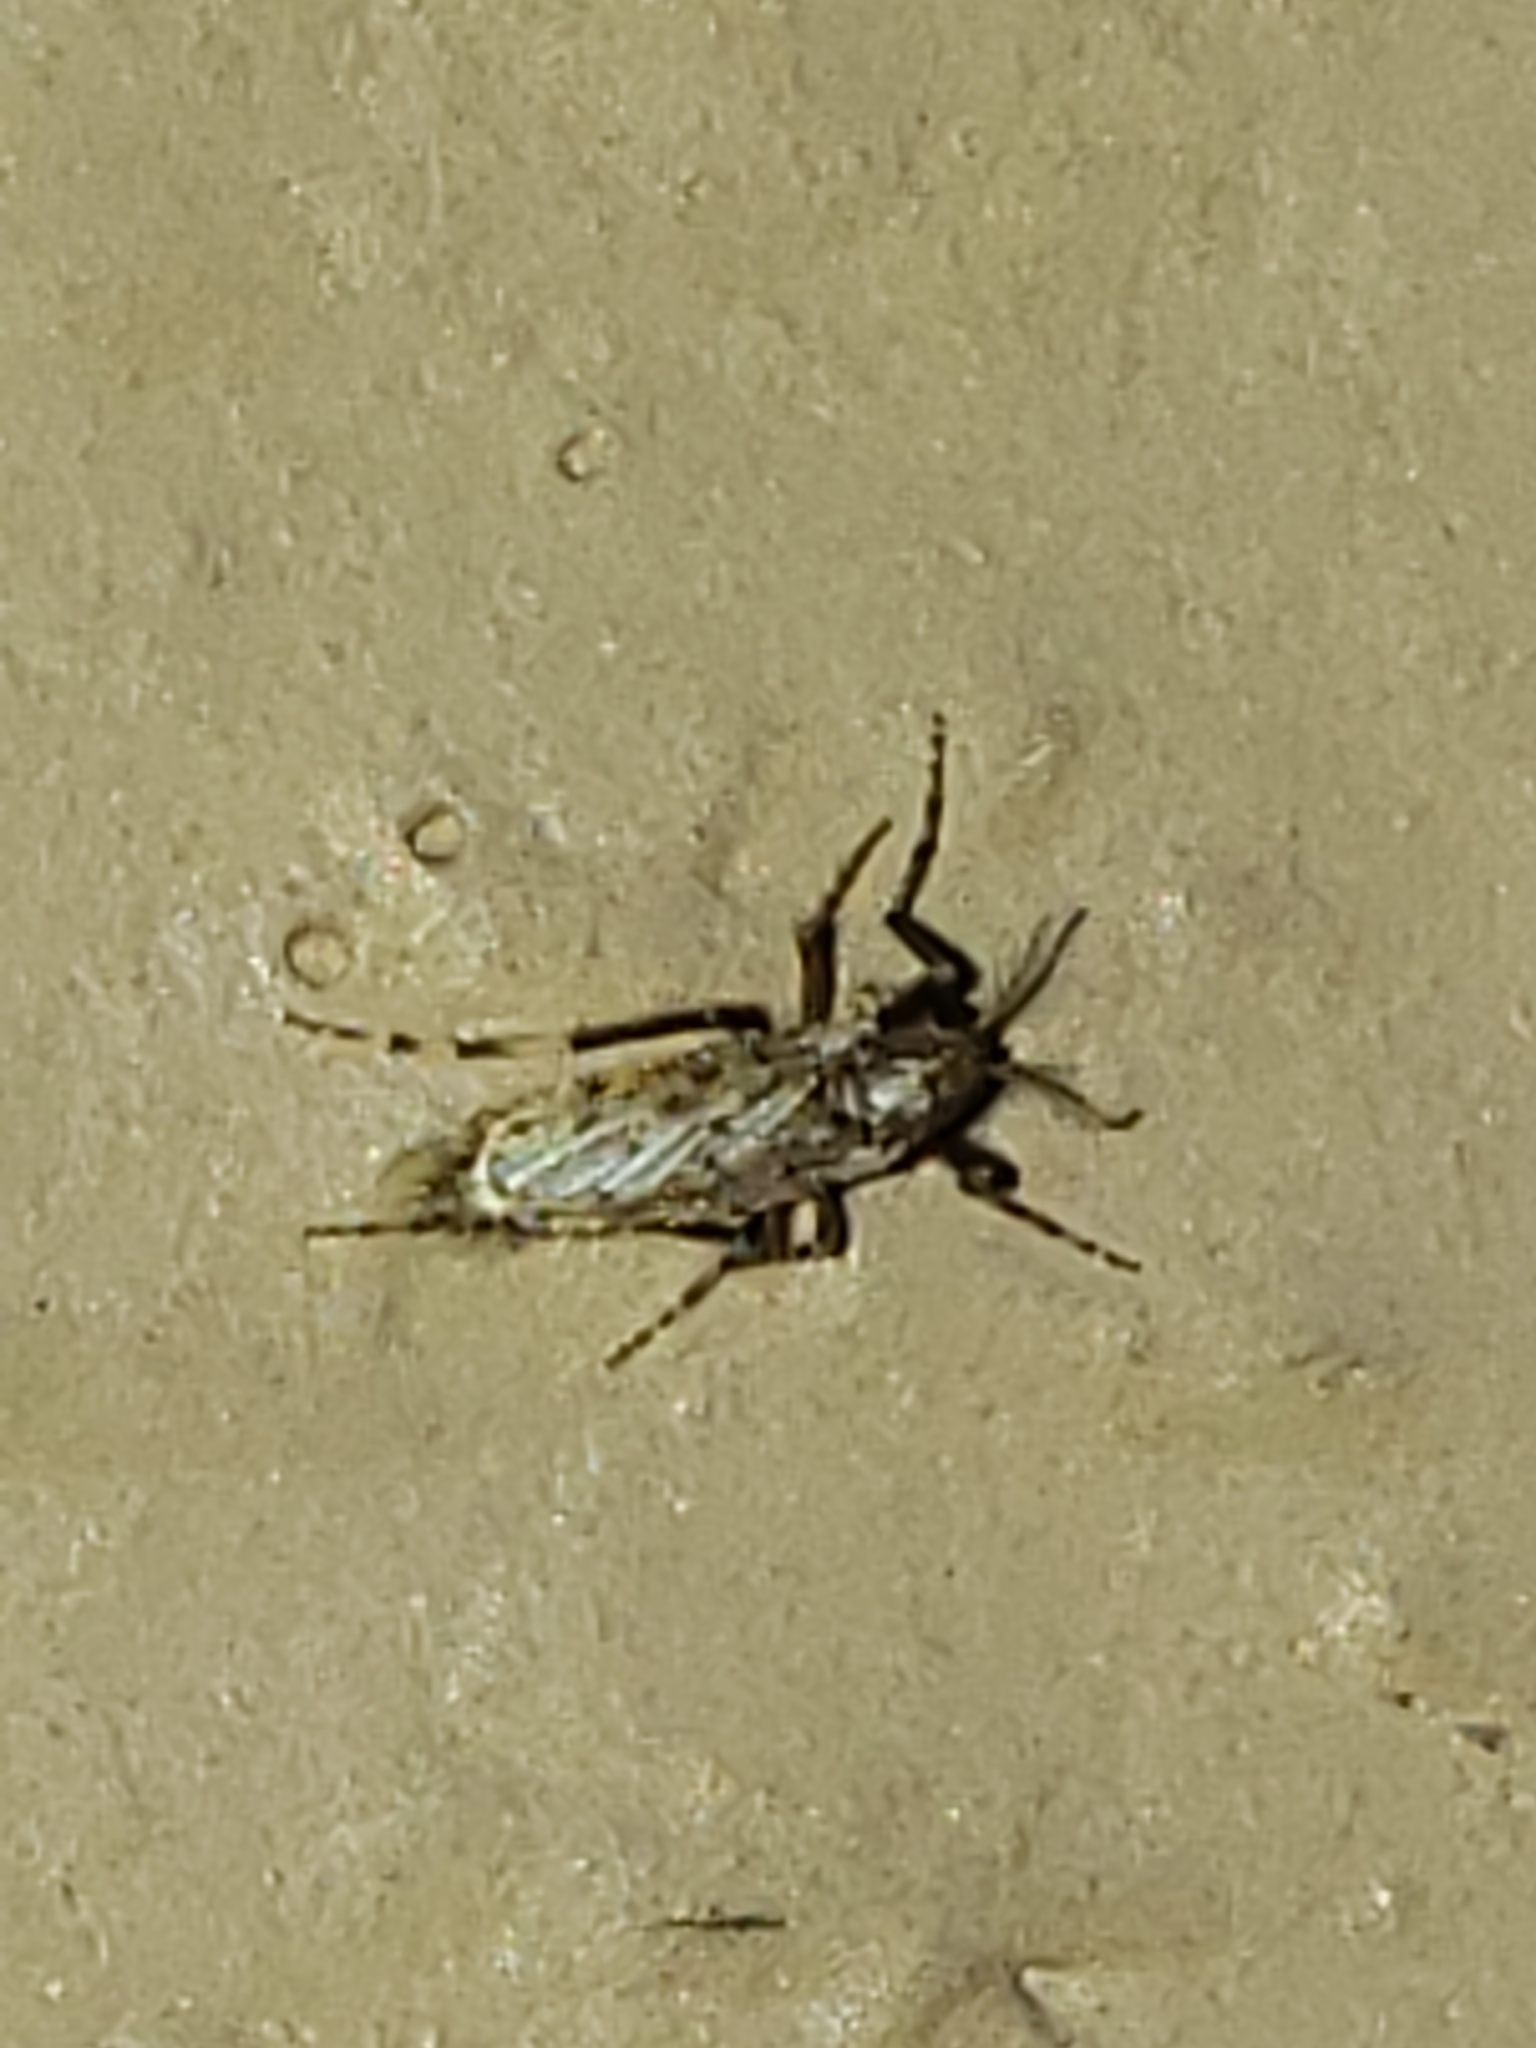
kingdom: Animalia
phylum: Arthropoda
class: Insecta
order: Diptera
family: Chaoboridae
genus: Chaoborus
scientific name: Chaoborus punctipennis
